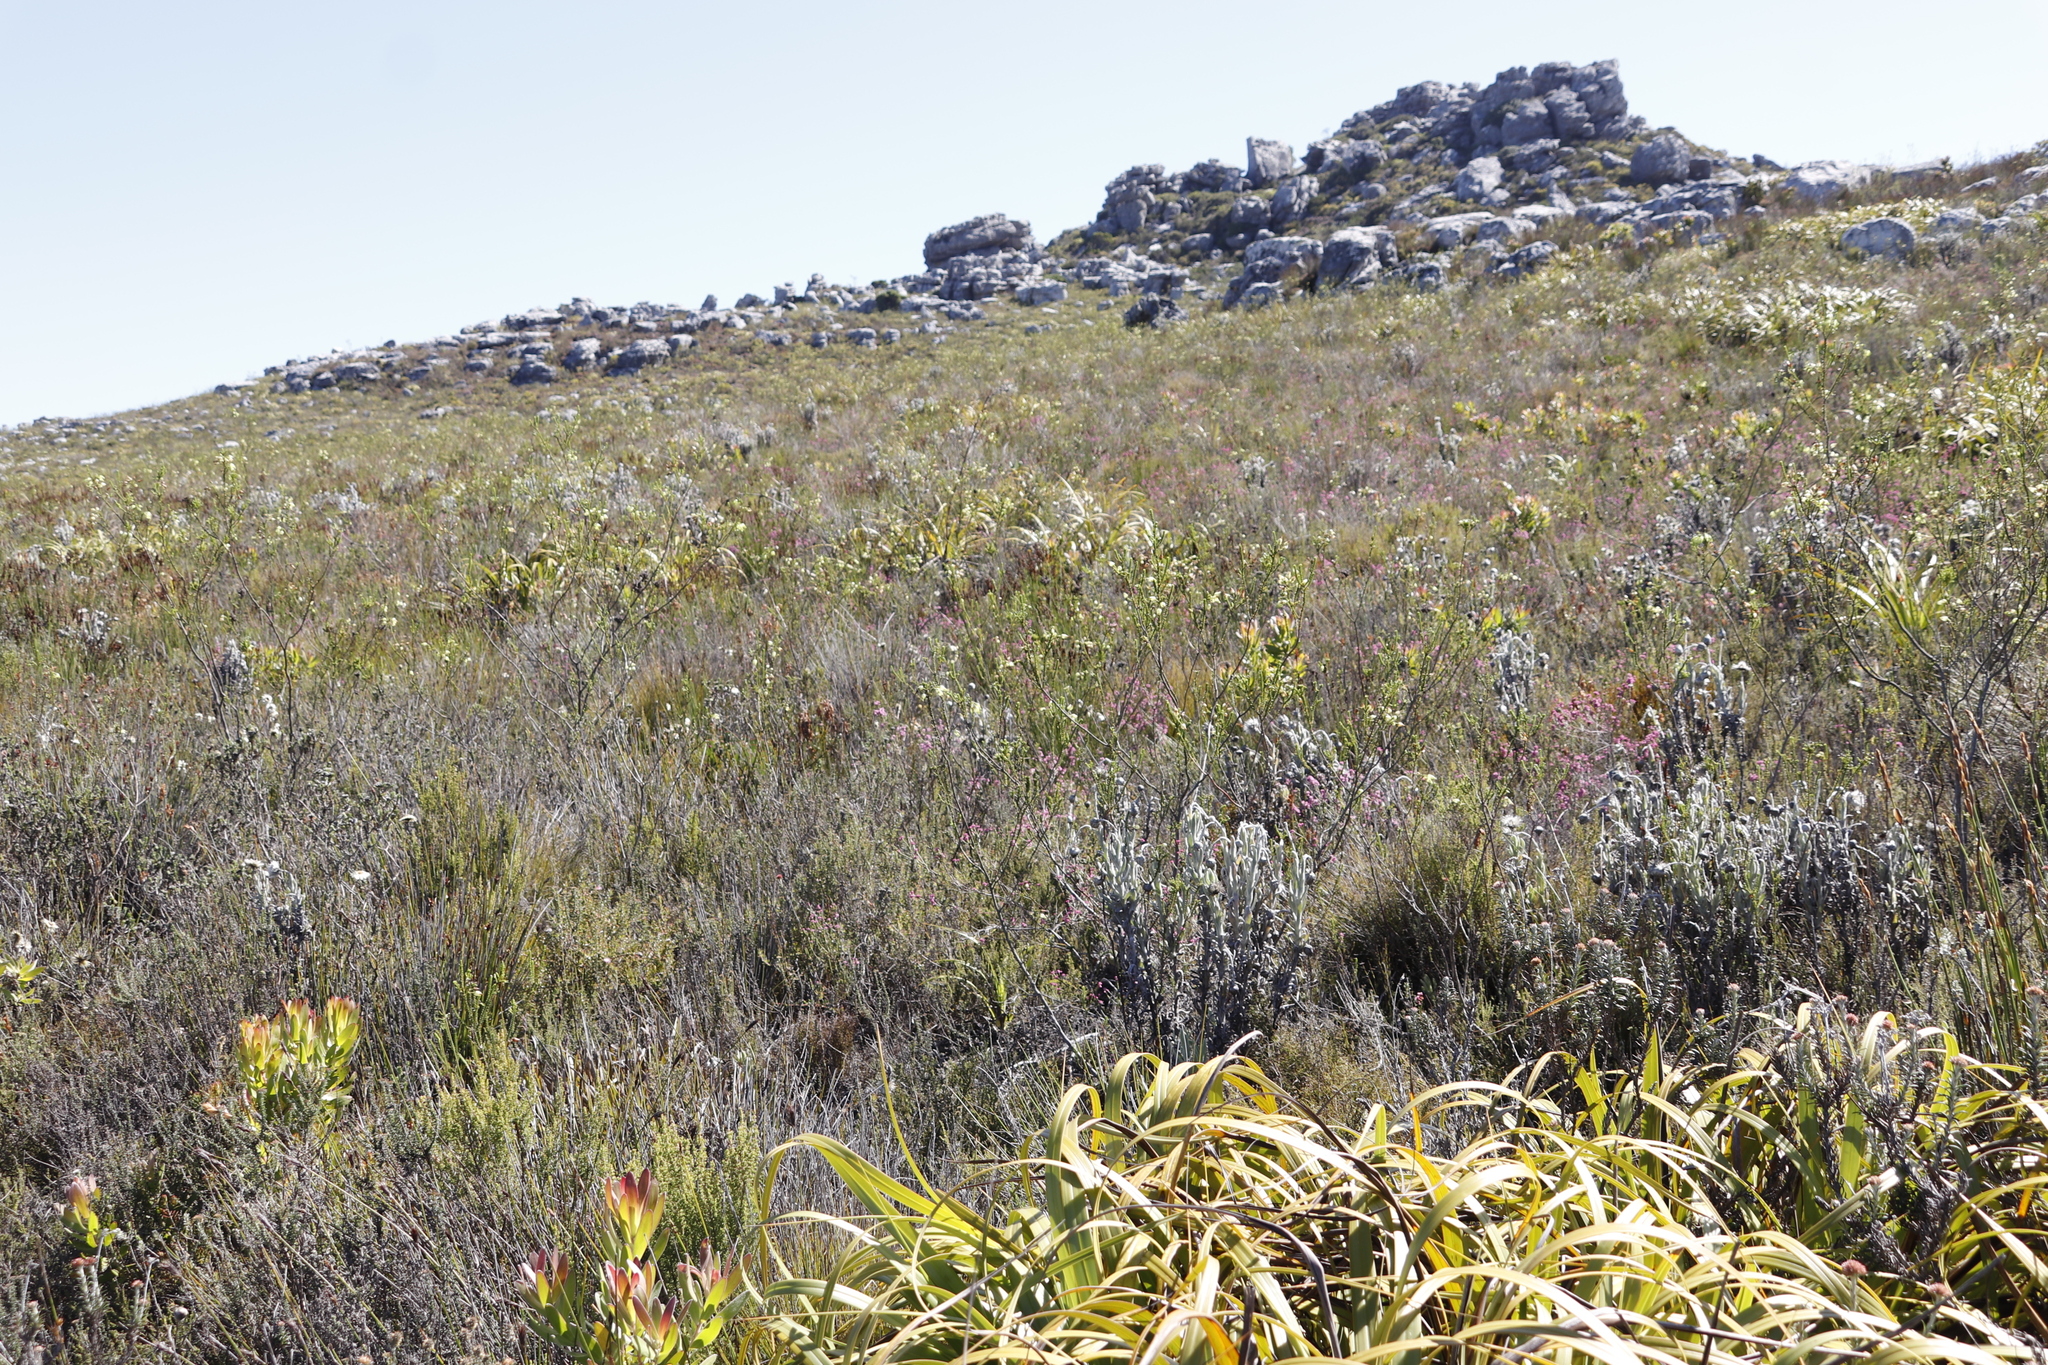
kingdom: Plantae
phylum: Tracheophyta
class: Magnoliopsida
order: Ericales
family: Ericaceae
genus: Erica
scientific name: Erica urna-viridis
